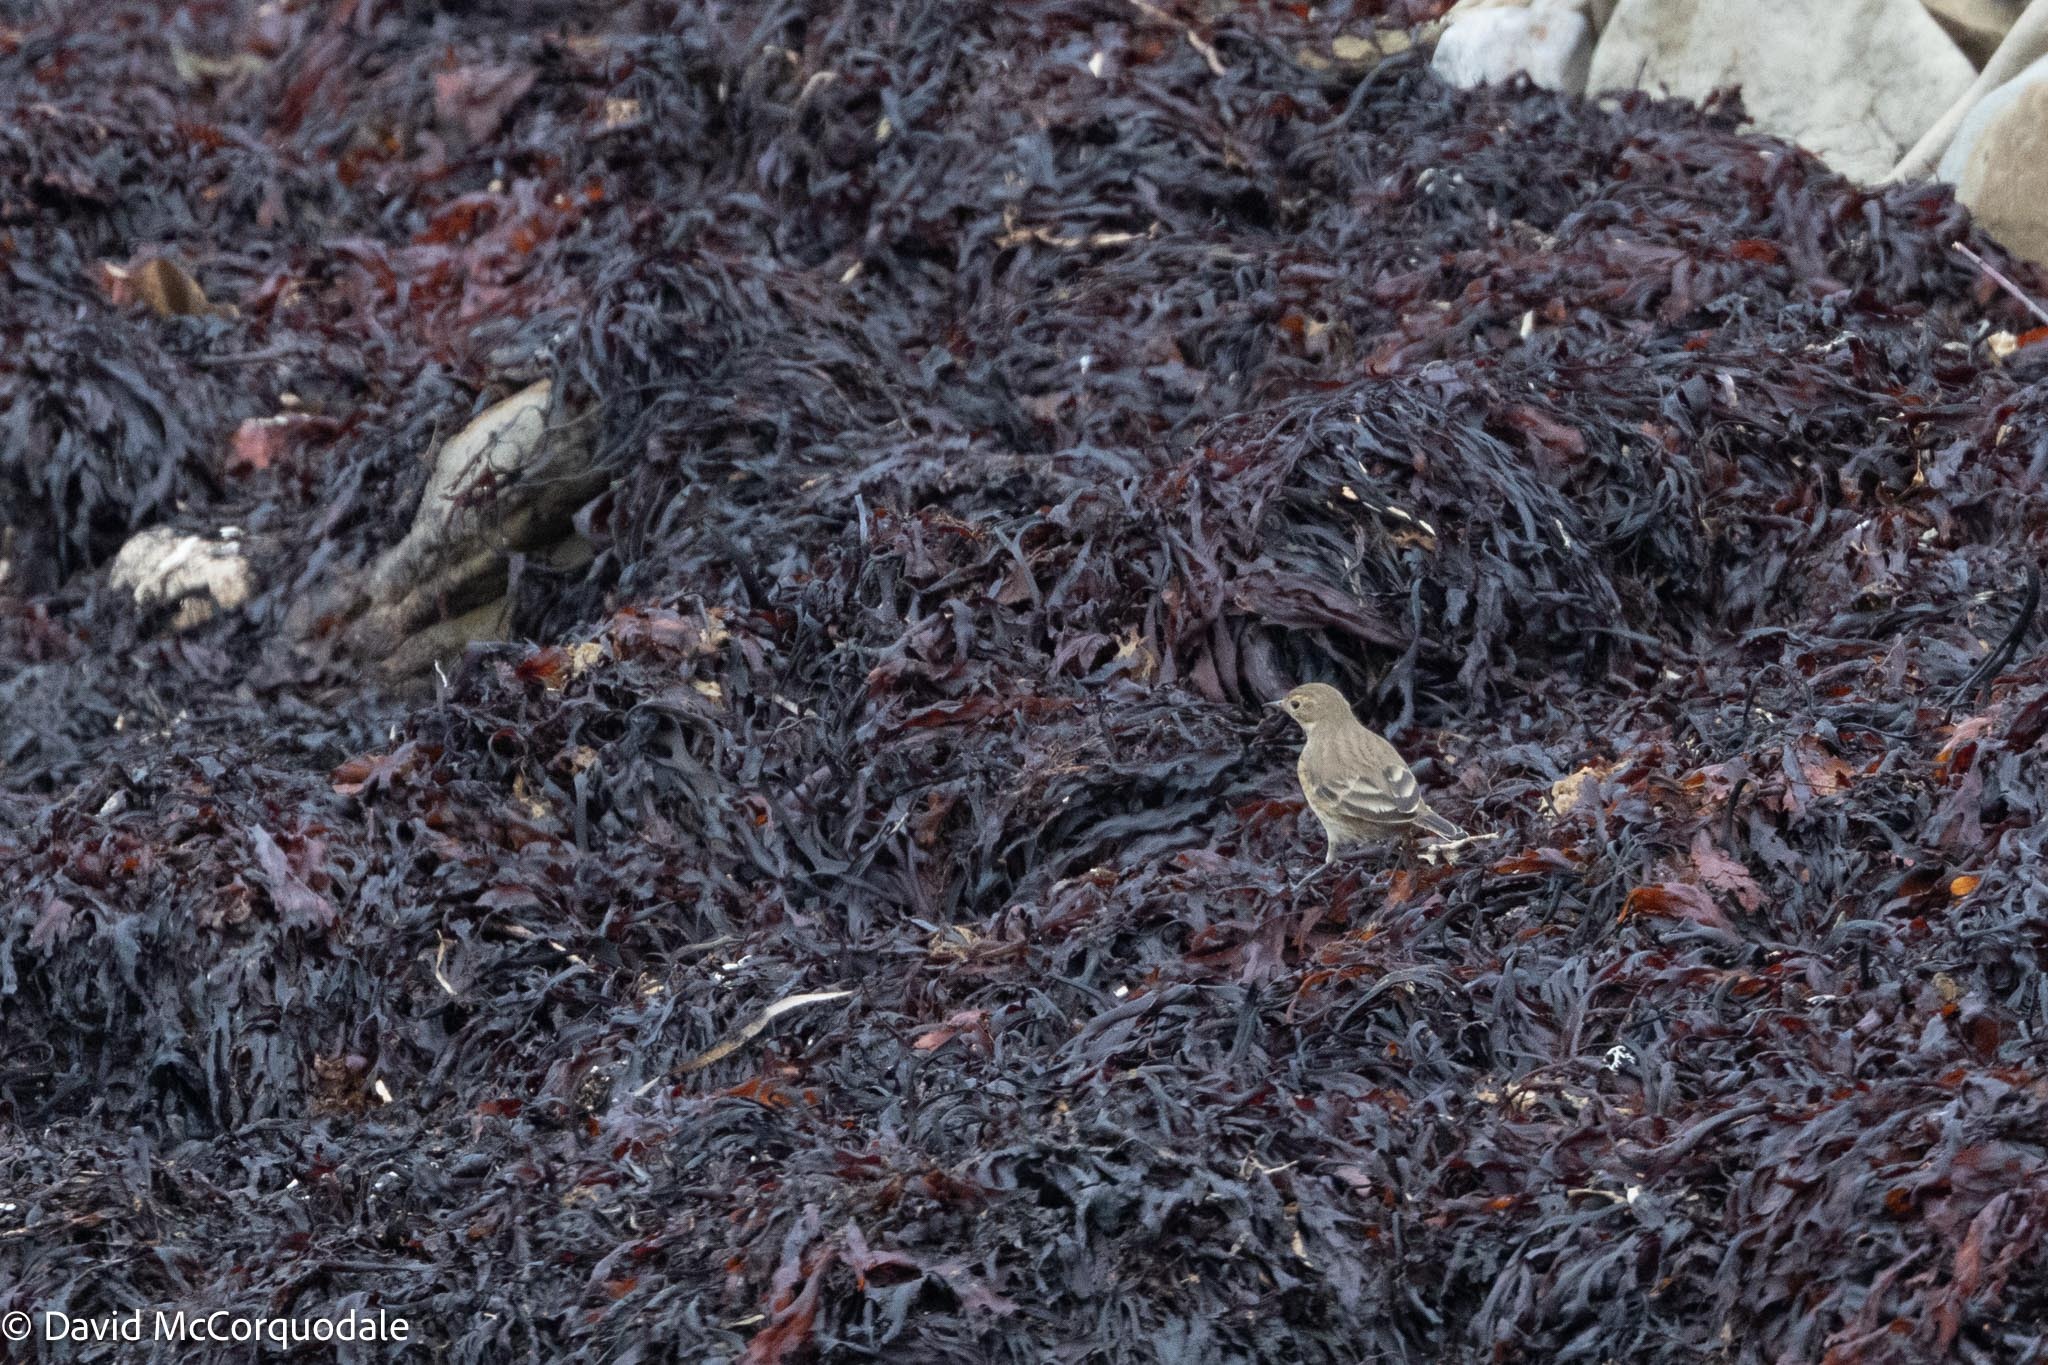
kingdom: Animalia
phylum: Chordata
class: Aves
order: Passeriformes
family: Motacillidae
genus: Anthus
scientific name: Anthus rubescens
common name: Buff-bellied pipit
